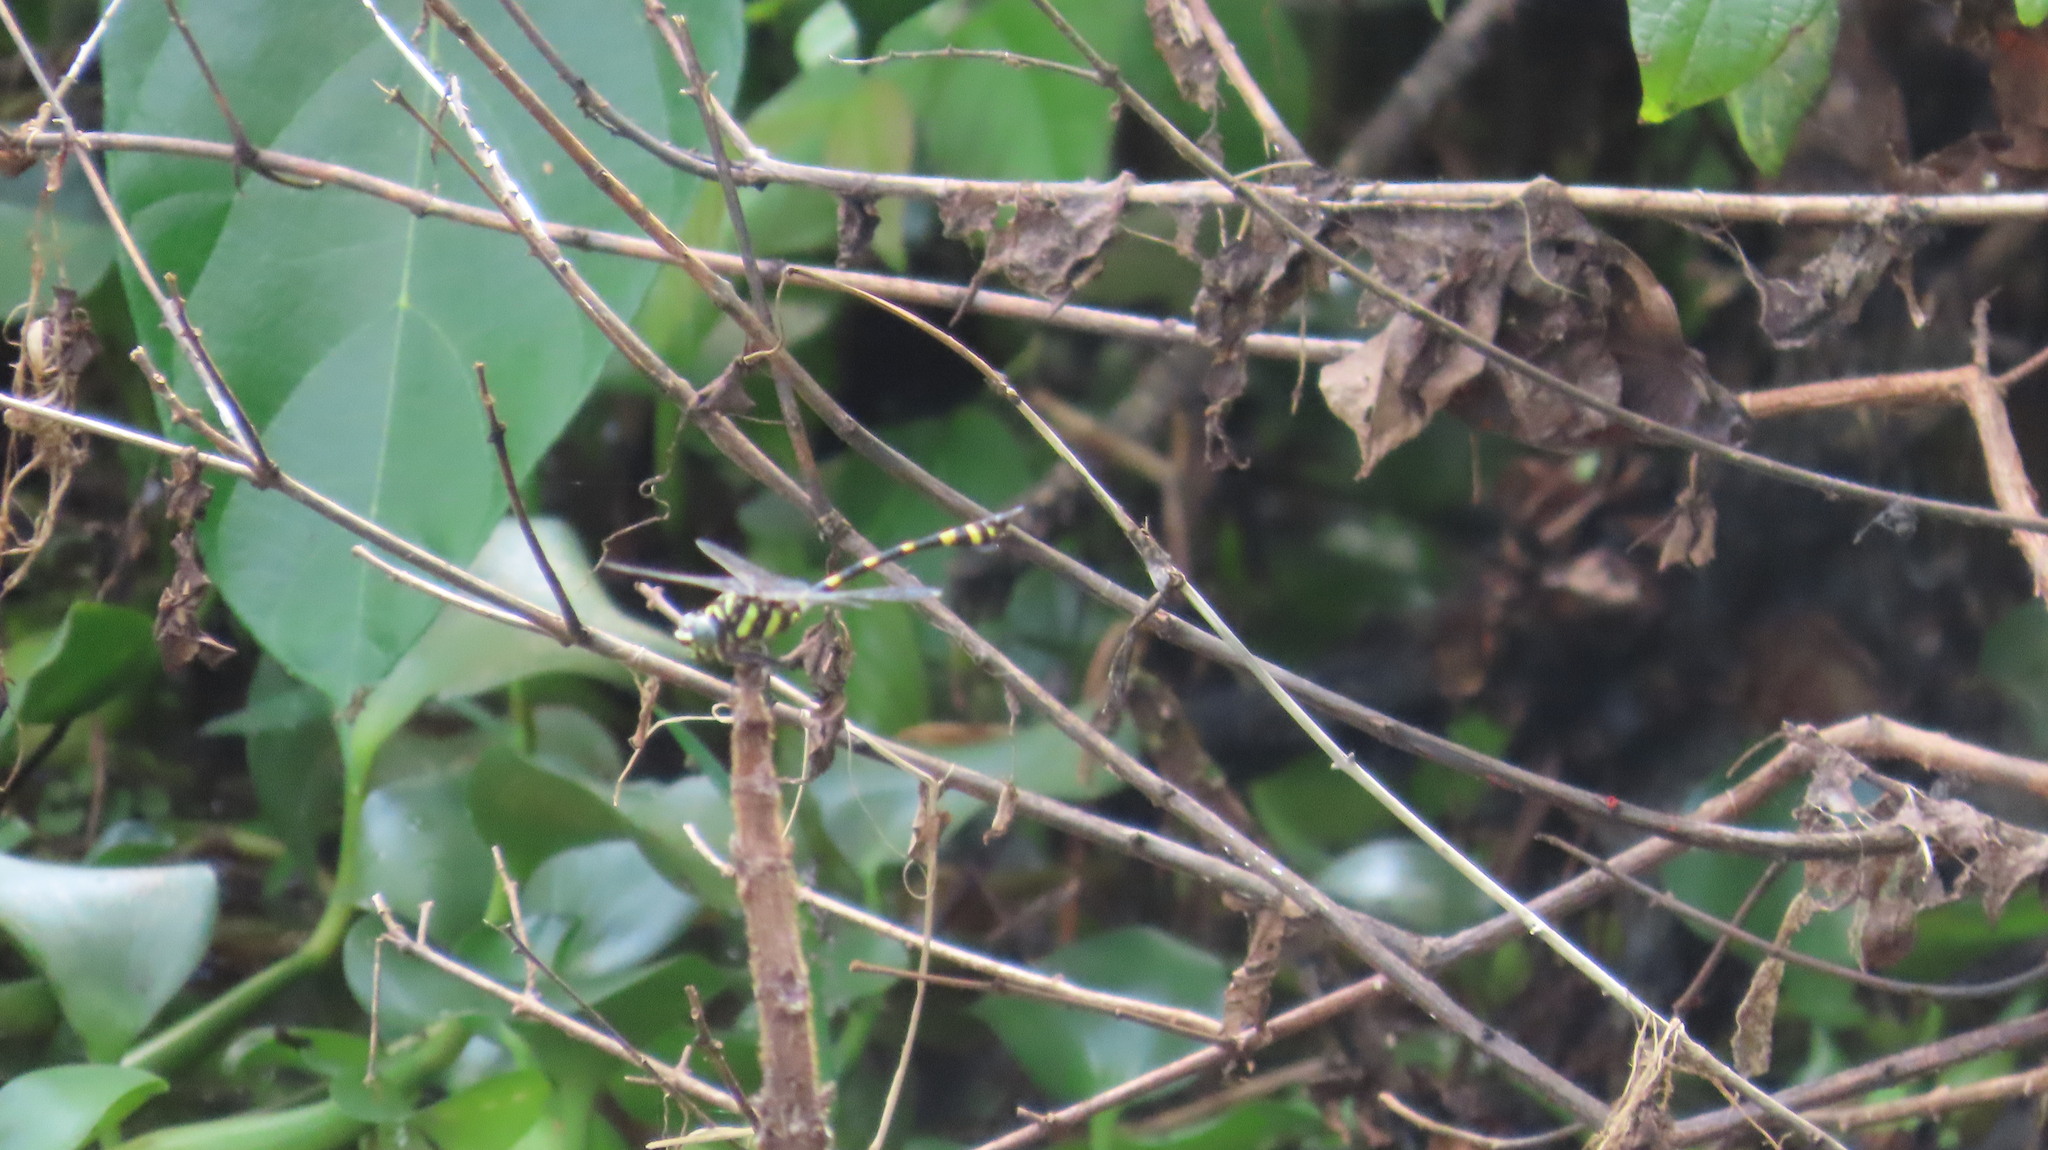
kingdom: Animalia
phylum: Arthropoda
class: Insecta
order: Odonata
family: Gomphidae
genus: Ictinogomphus
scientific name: Ictinogomphus rapax
